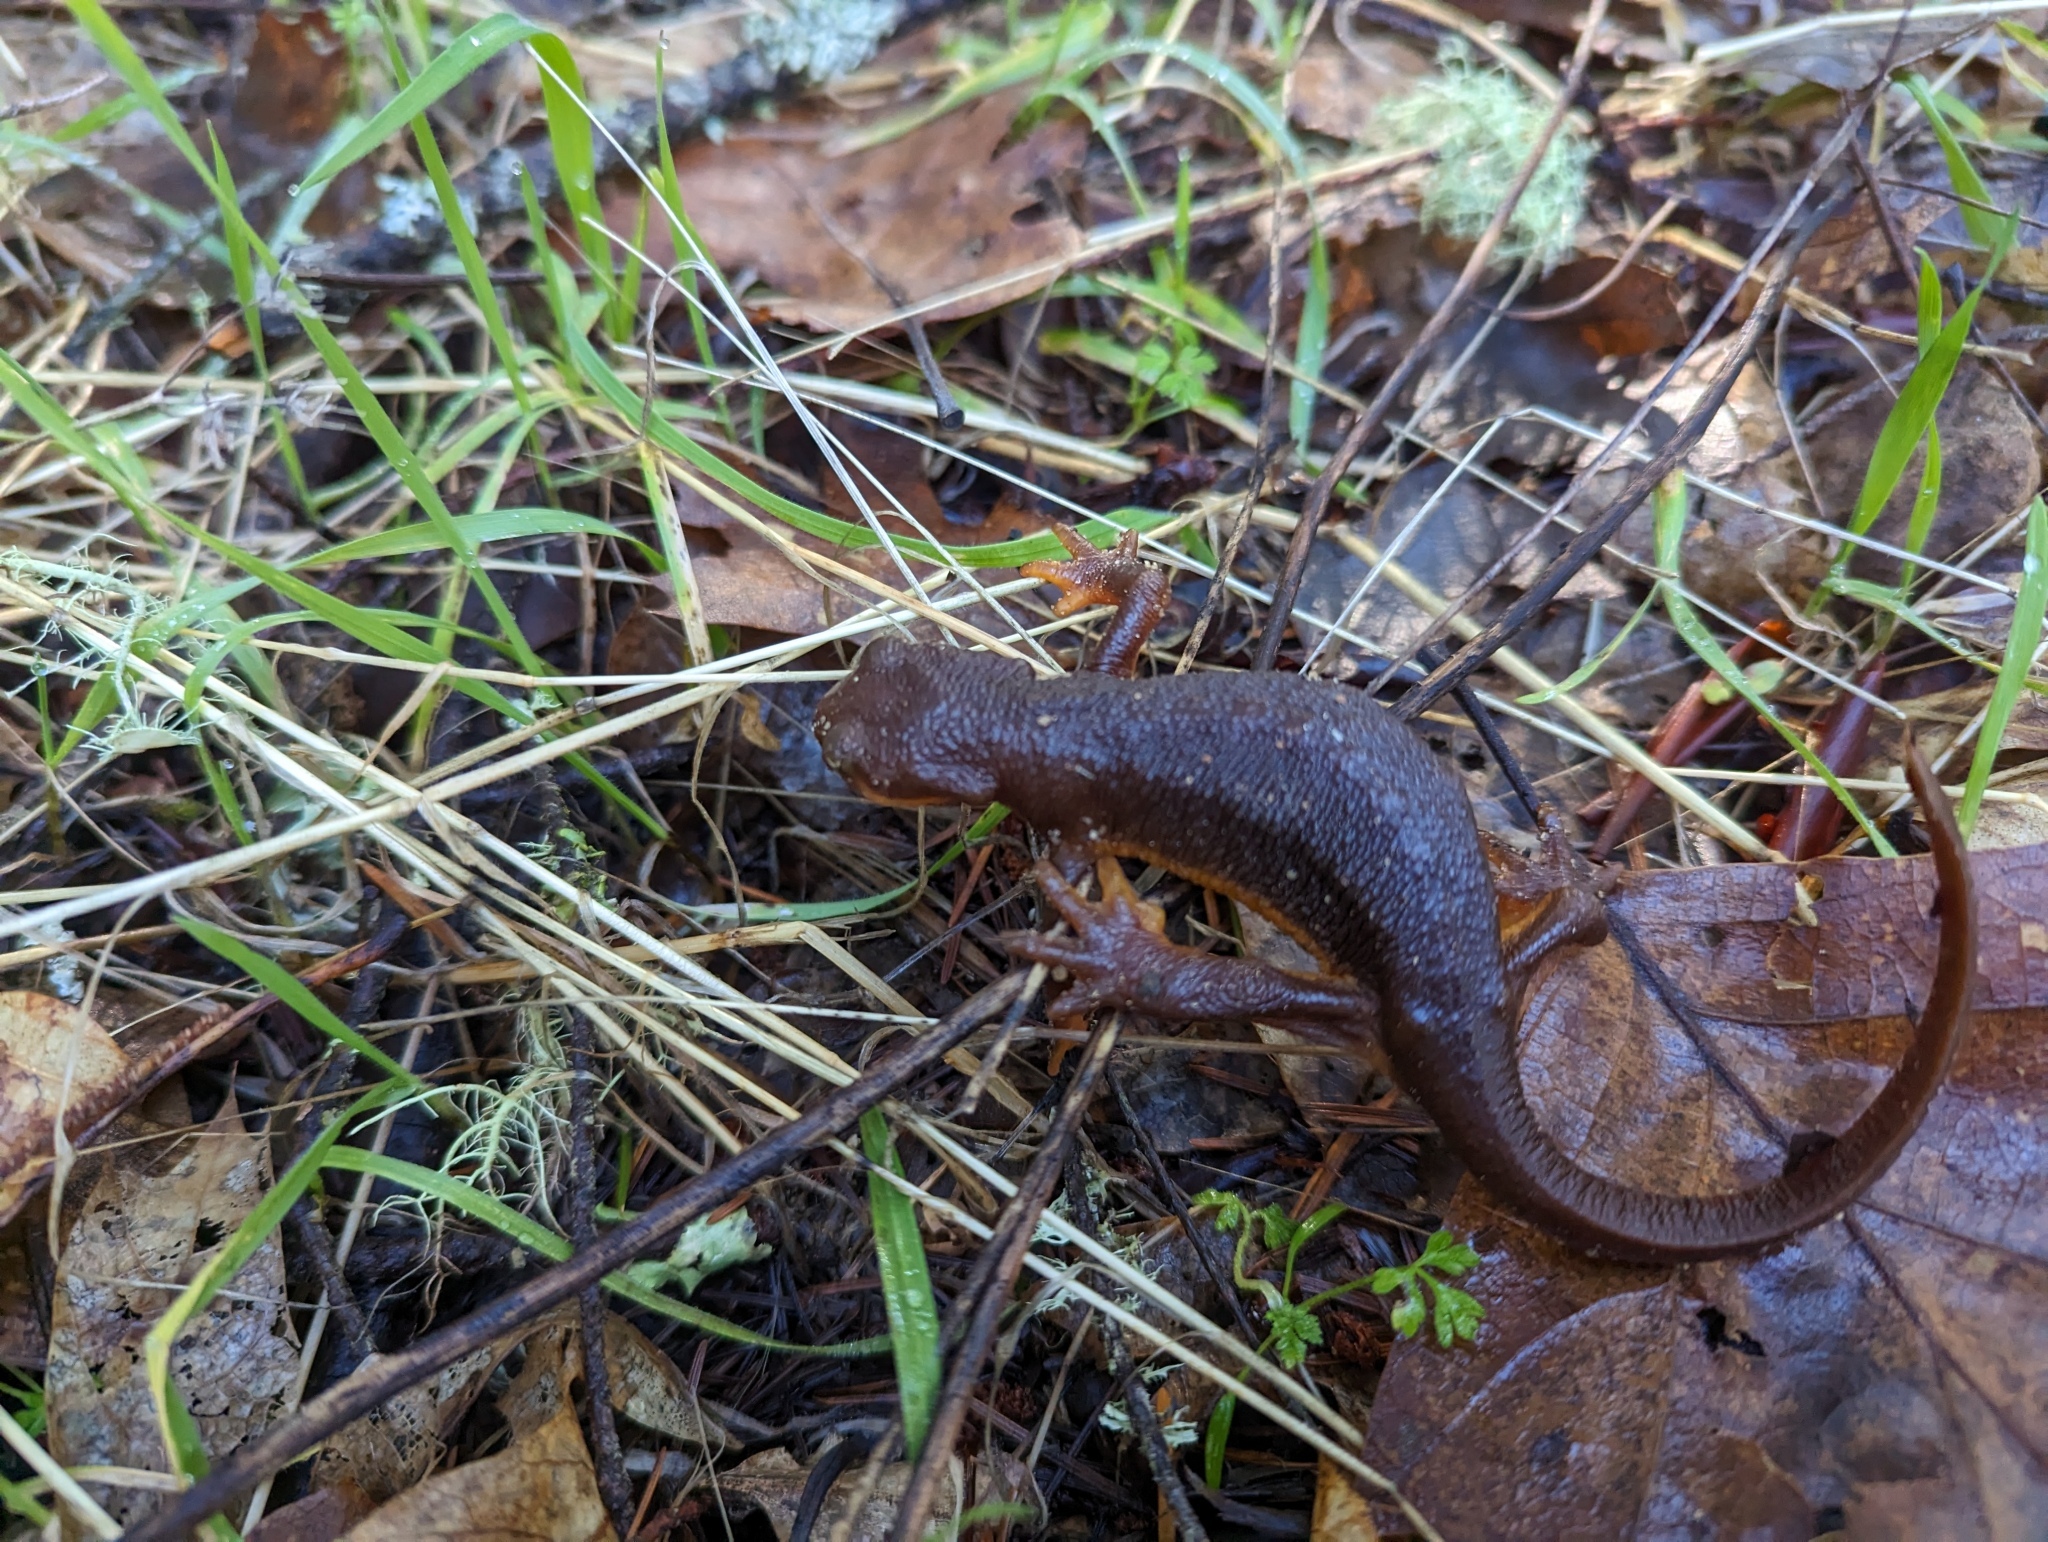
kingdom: Animalia
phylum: Chordata
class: Amphibia
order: Caudata
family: Salamandridae
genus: Taricha
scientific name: Taricha torosa
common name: California newt
